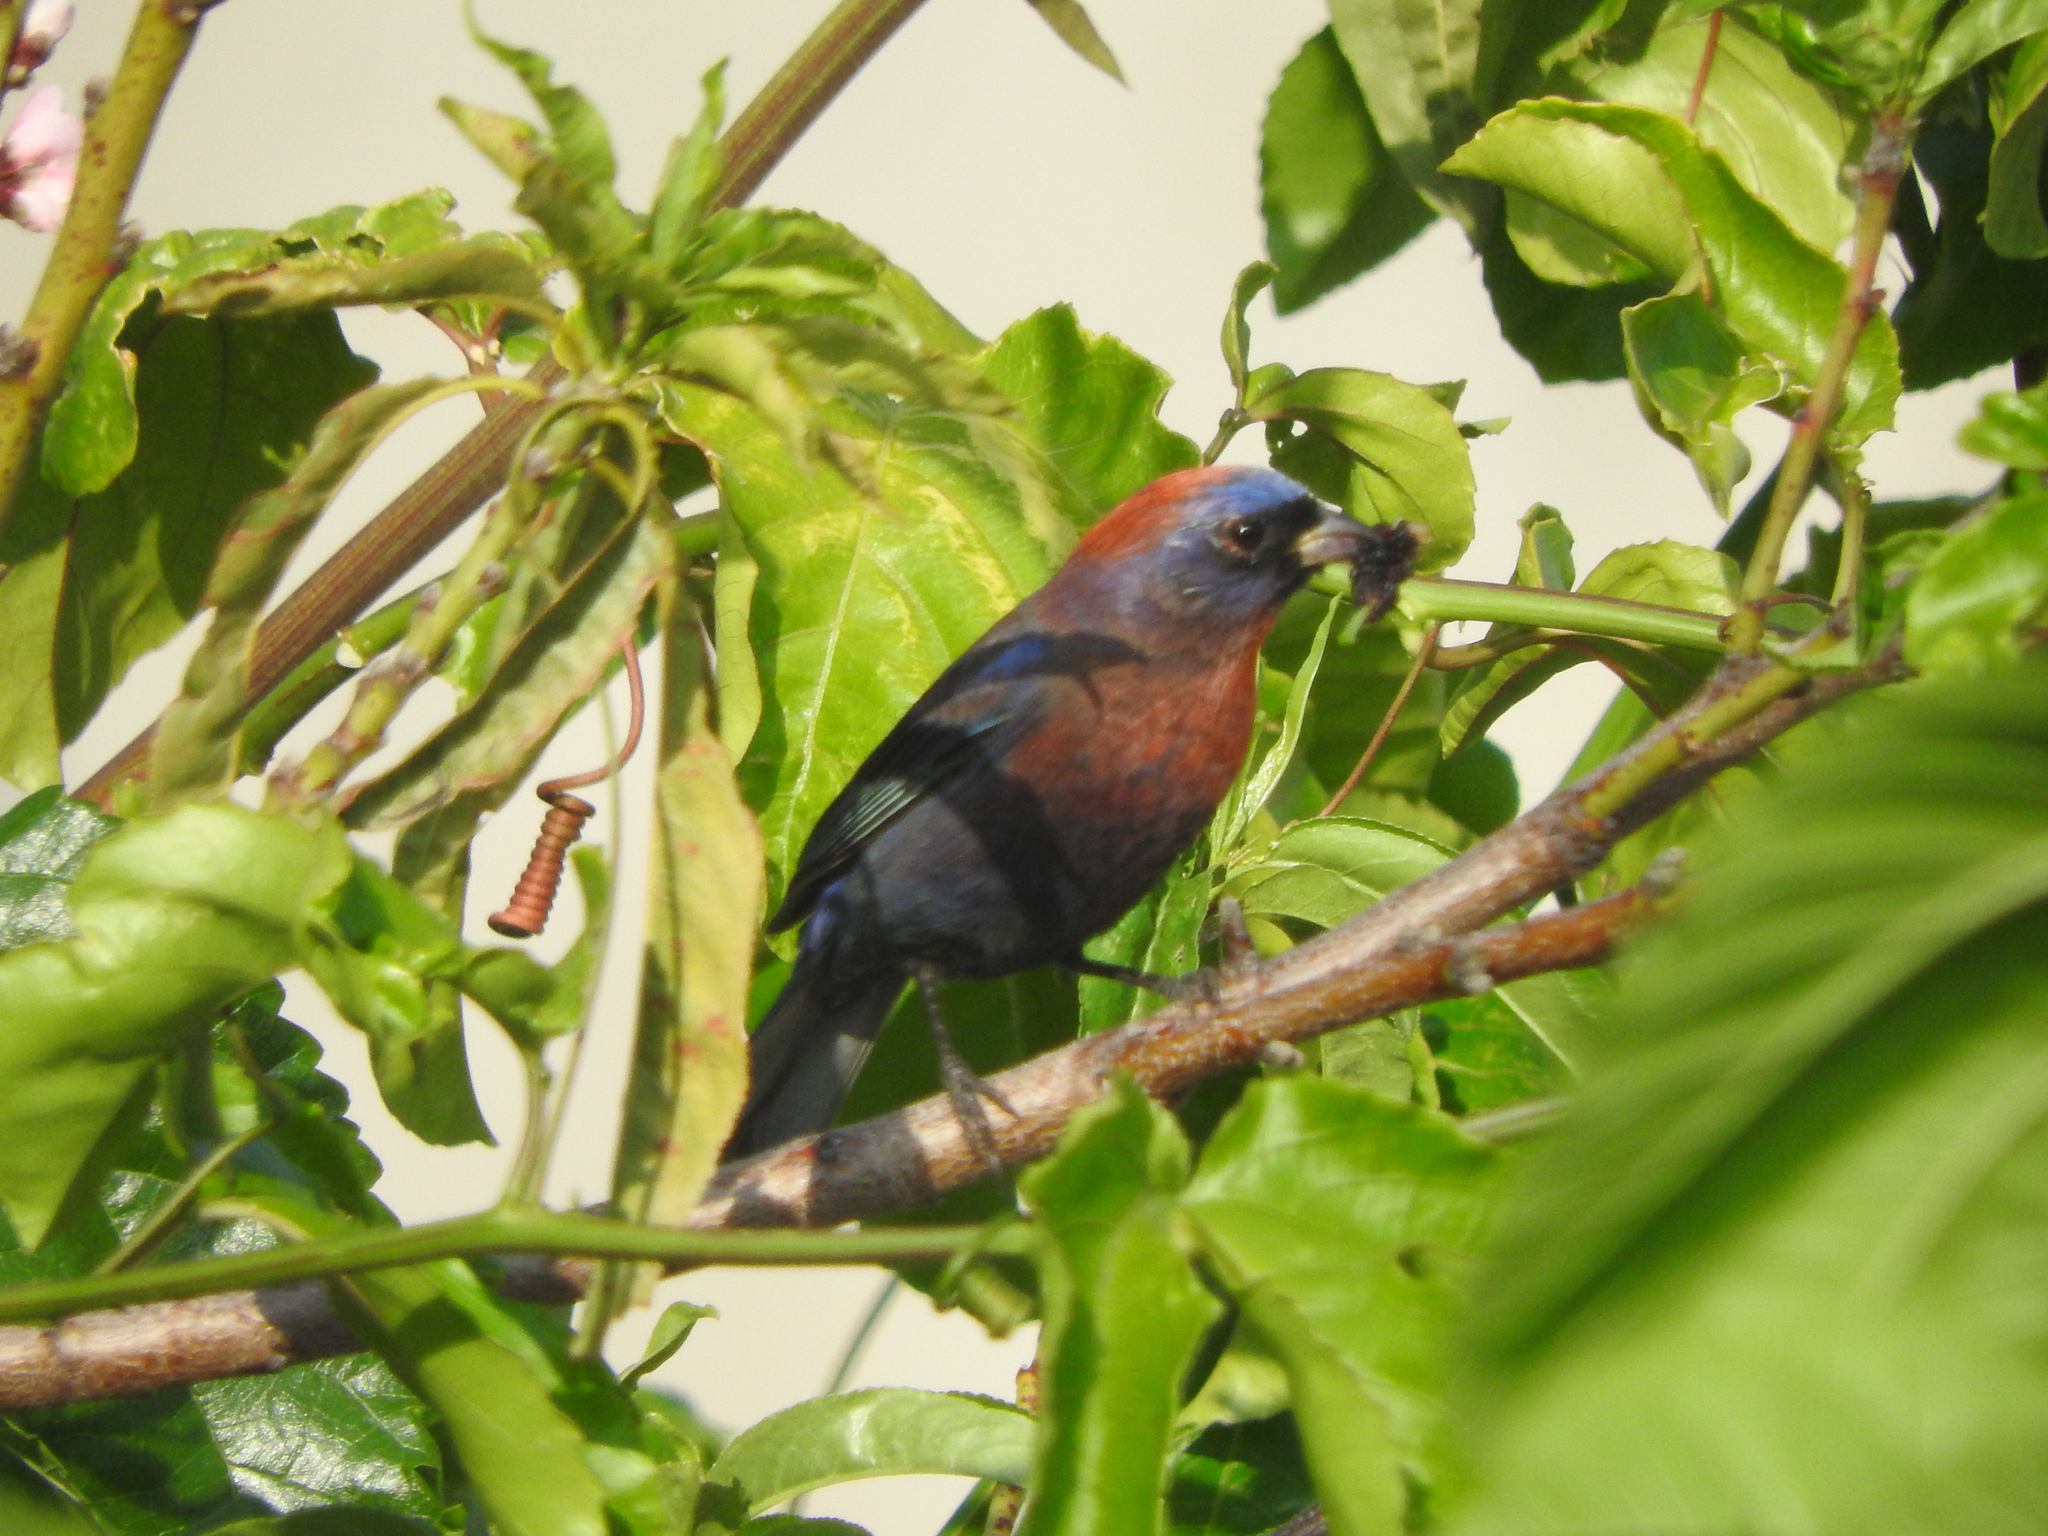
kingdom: Animalia
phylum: Chordata
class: Aves
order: Passeriformes
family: Cardinalidae
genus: Passerina
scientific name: Passerina versicolor
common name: Varied bunting
